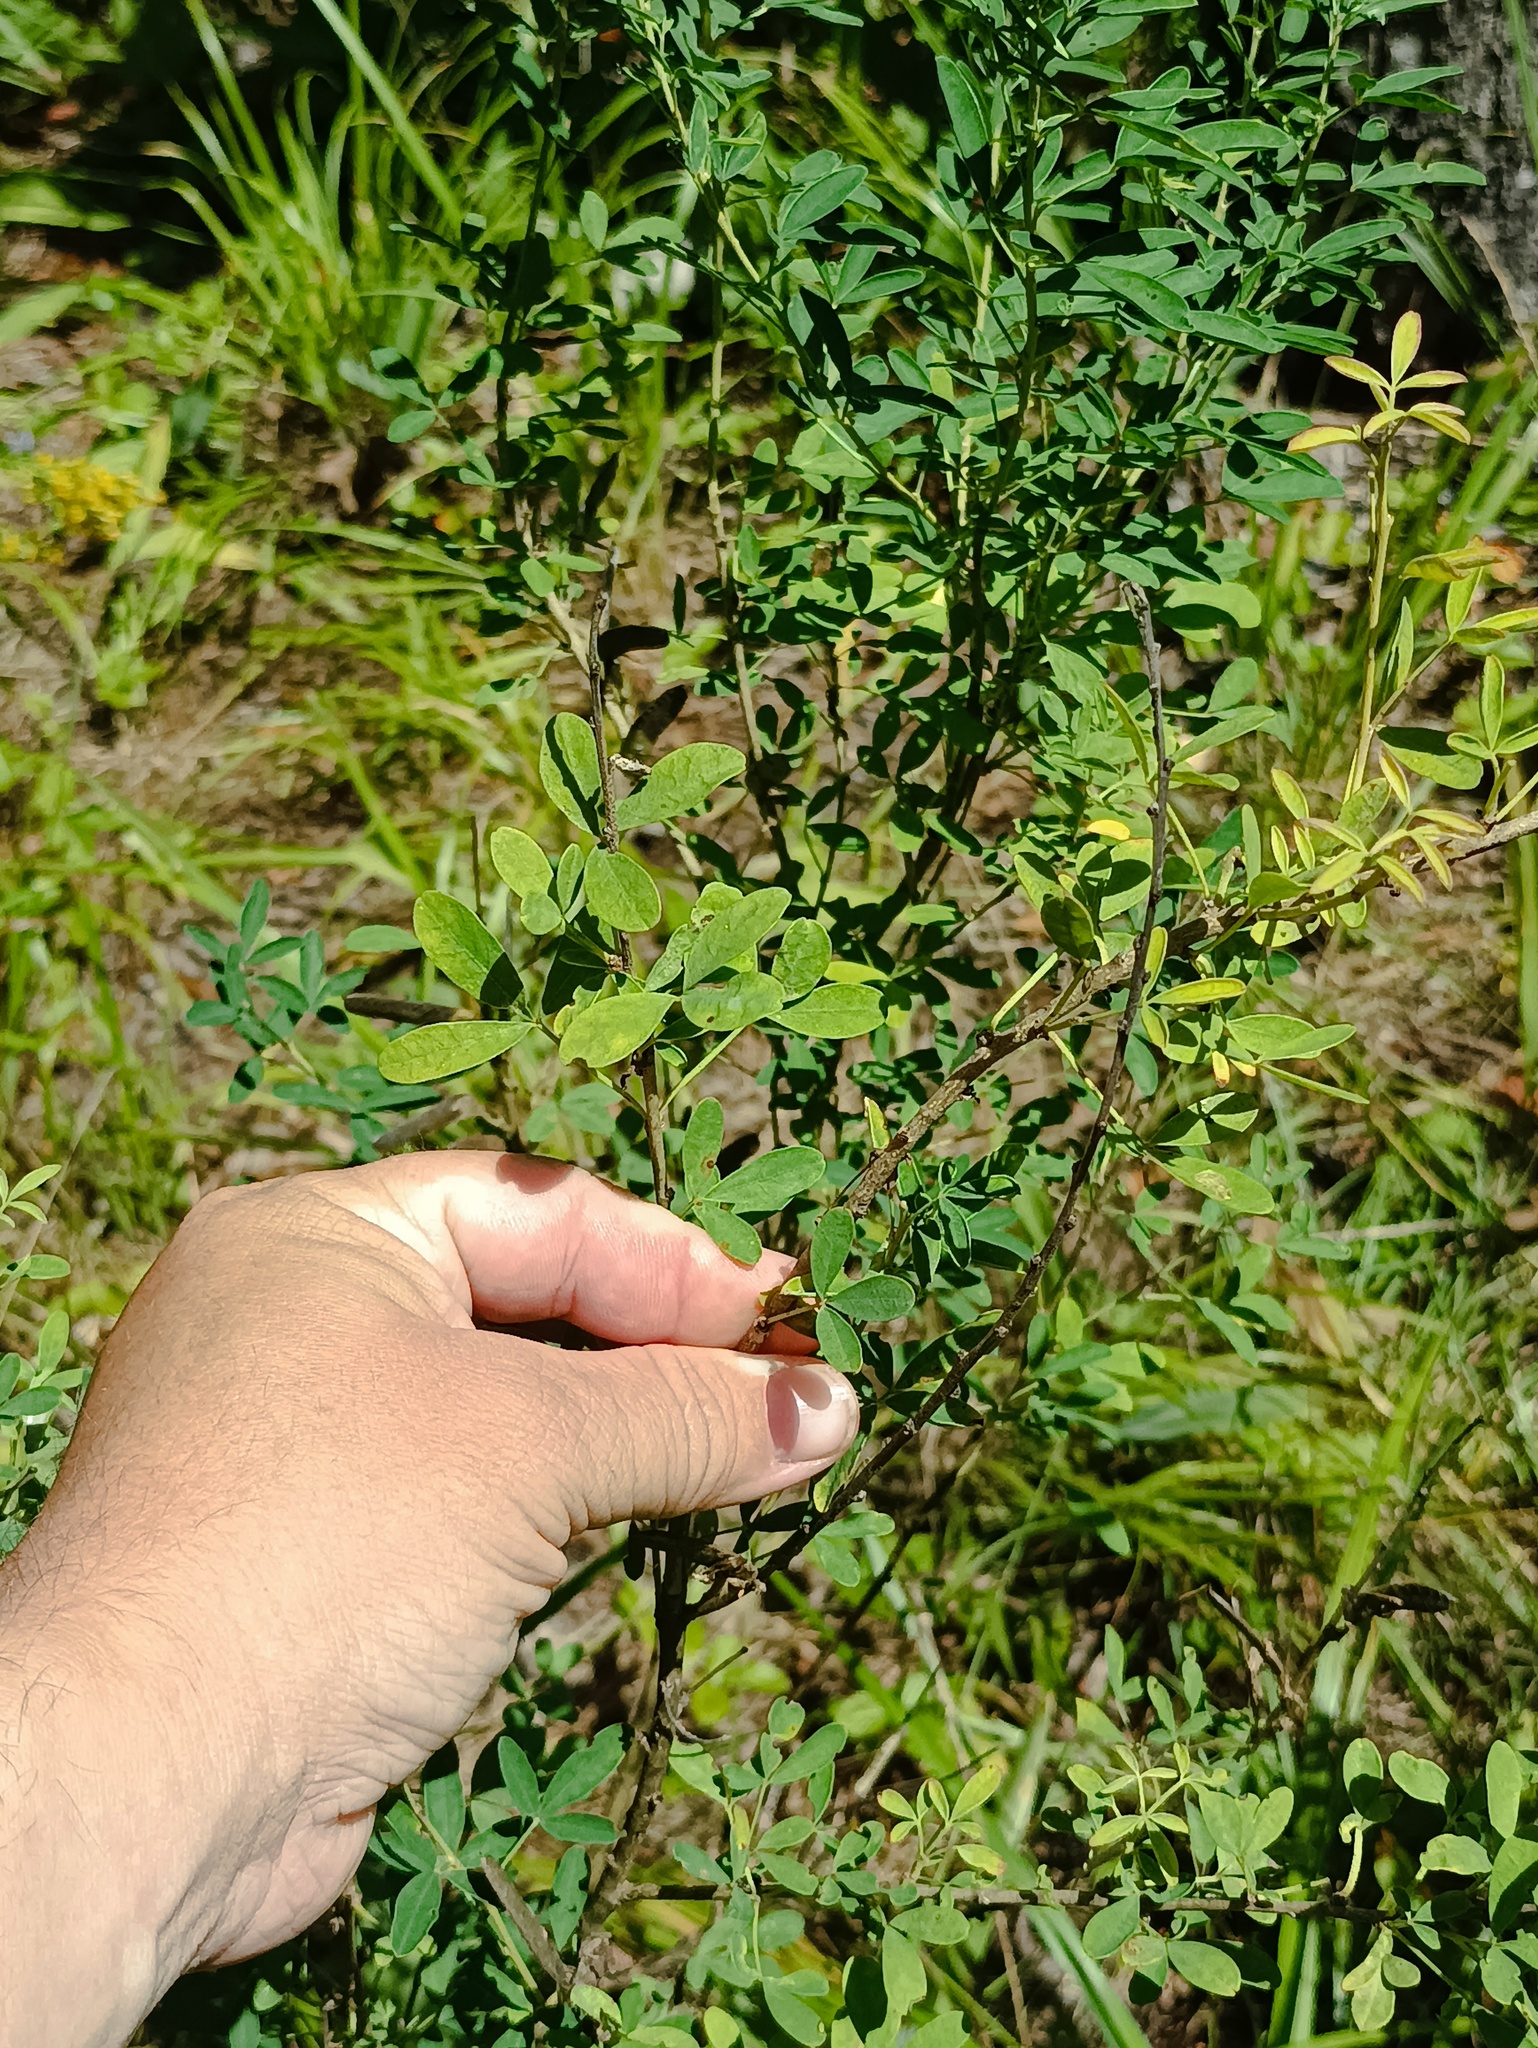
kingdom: Plantae
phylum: Tracheophyta
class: Magnoliopsida
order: Fabales
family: Fabaceae
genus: Chamaecytisus
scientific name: Chamaecytisus ruthenicus
